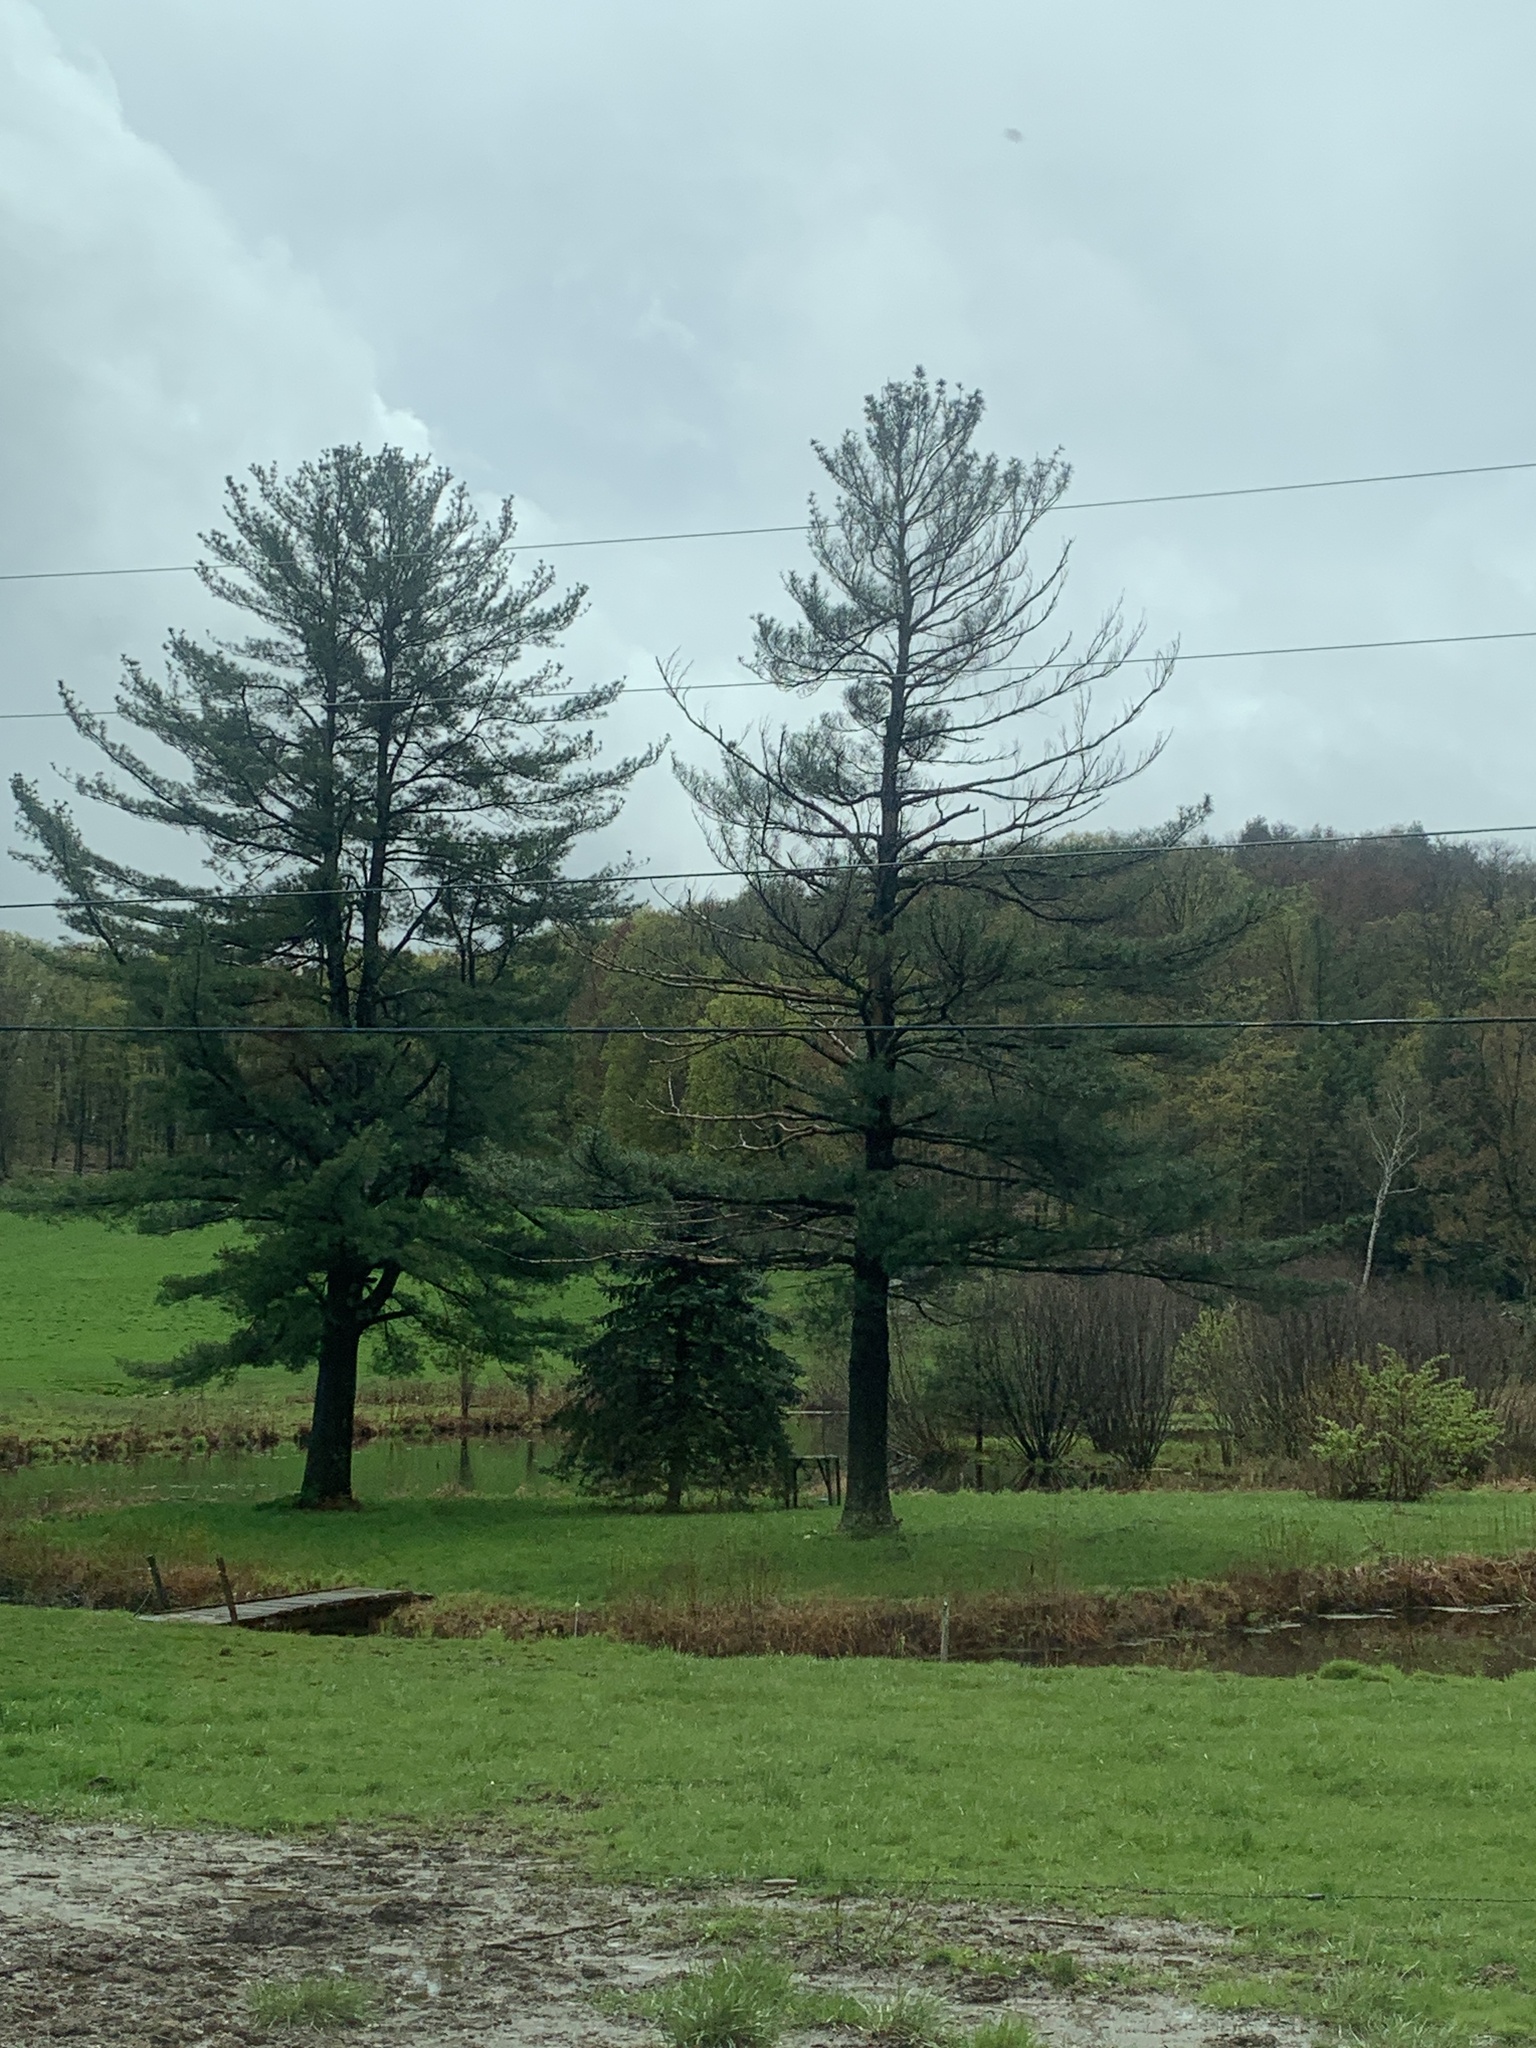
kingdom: Plantae
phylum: Tracheophyta
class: Pinopsida
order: Pinales
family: Pinaceae
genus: Pinus
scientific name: Pinus strobus
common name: Weymouth pine
